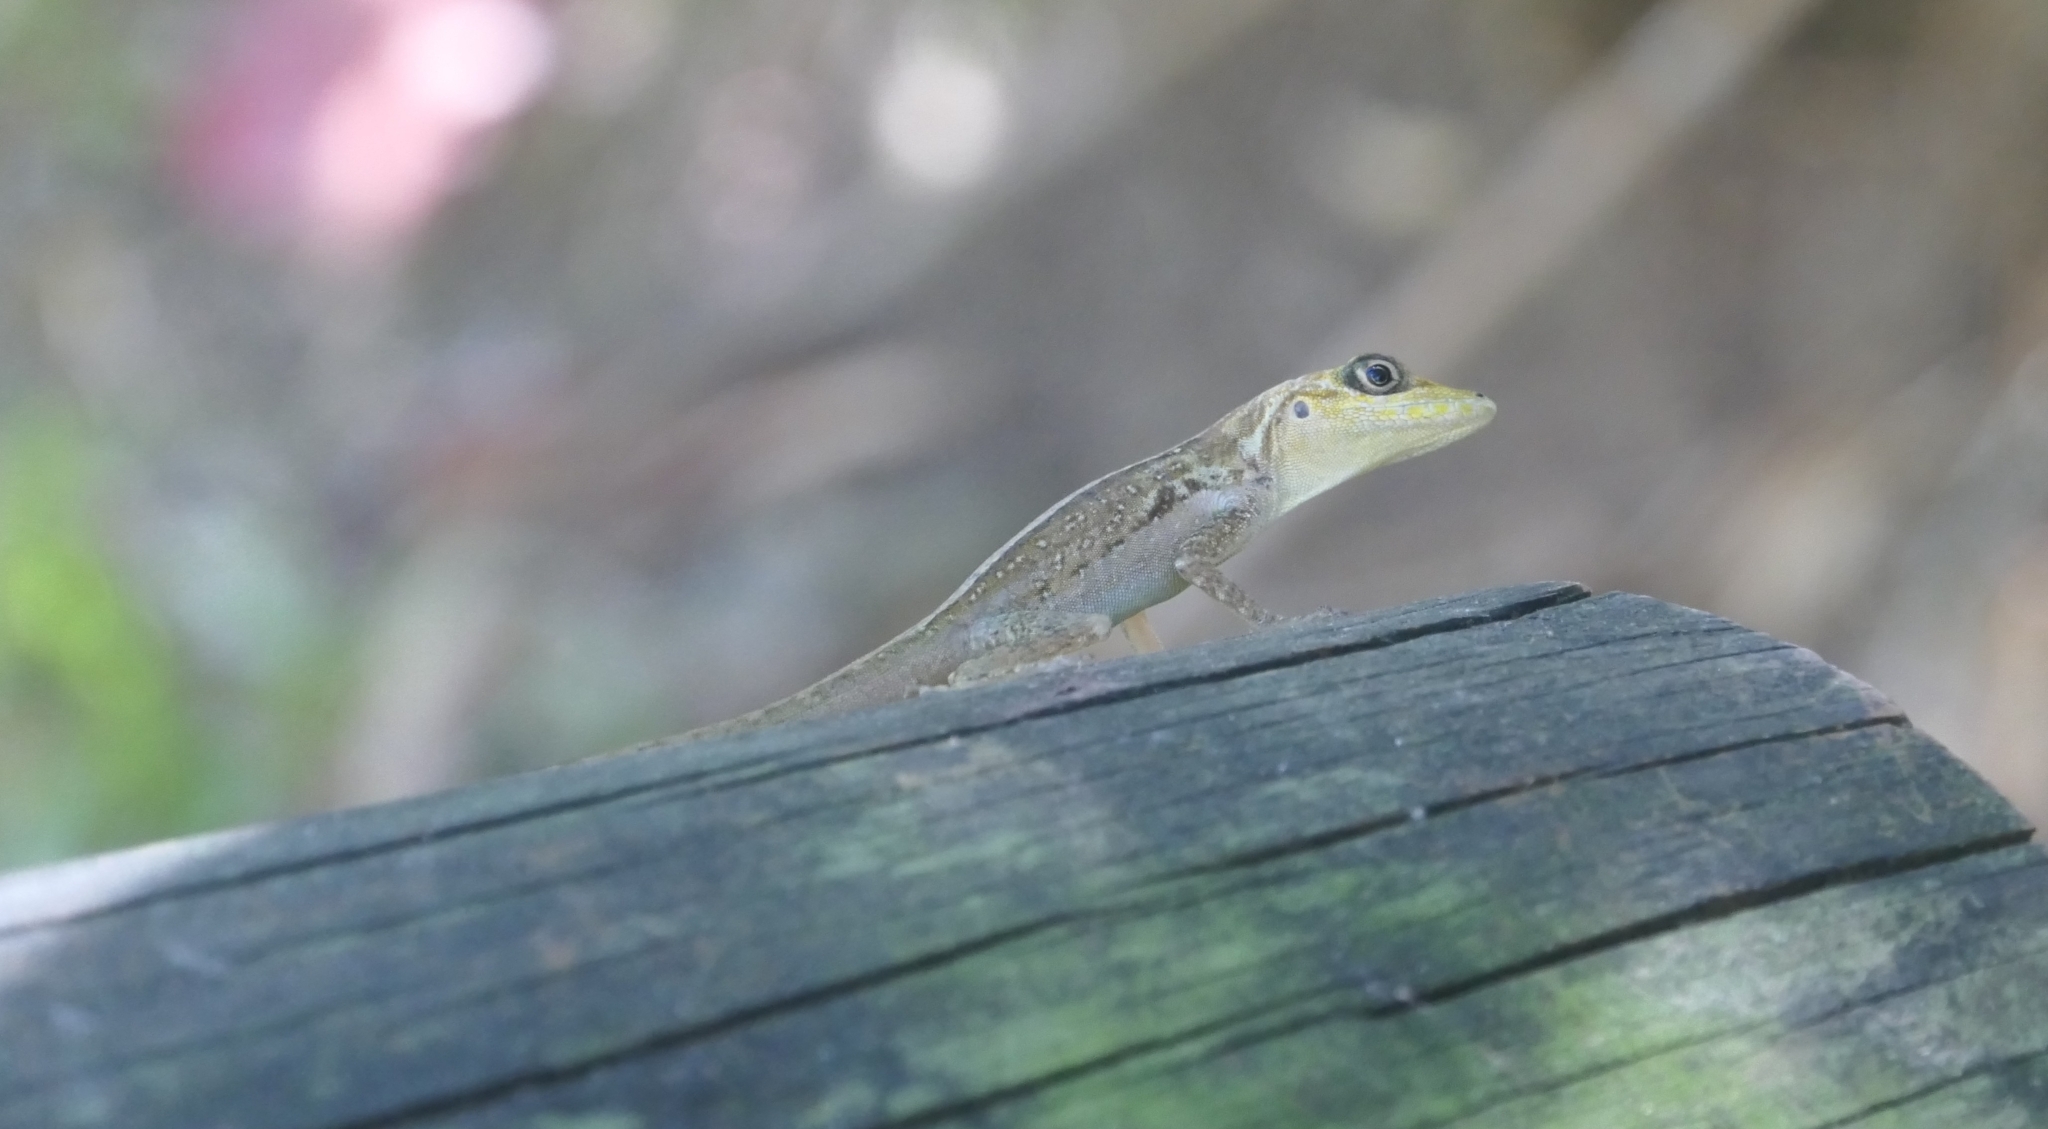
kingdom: Animalia
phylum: Chordata
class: Squamata
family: Dactyloidae
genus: Anolis
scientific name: Anolis roquet
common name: Martinique anole
